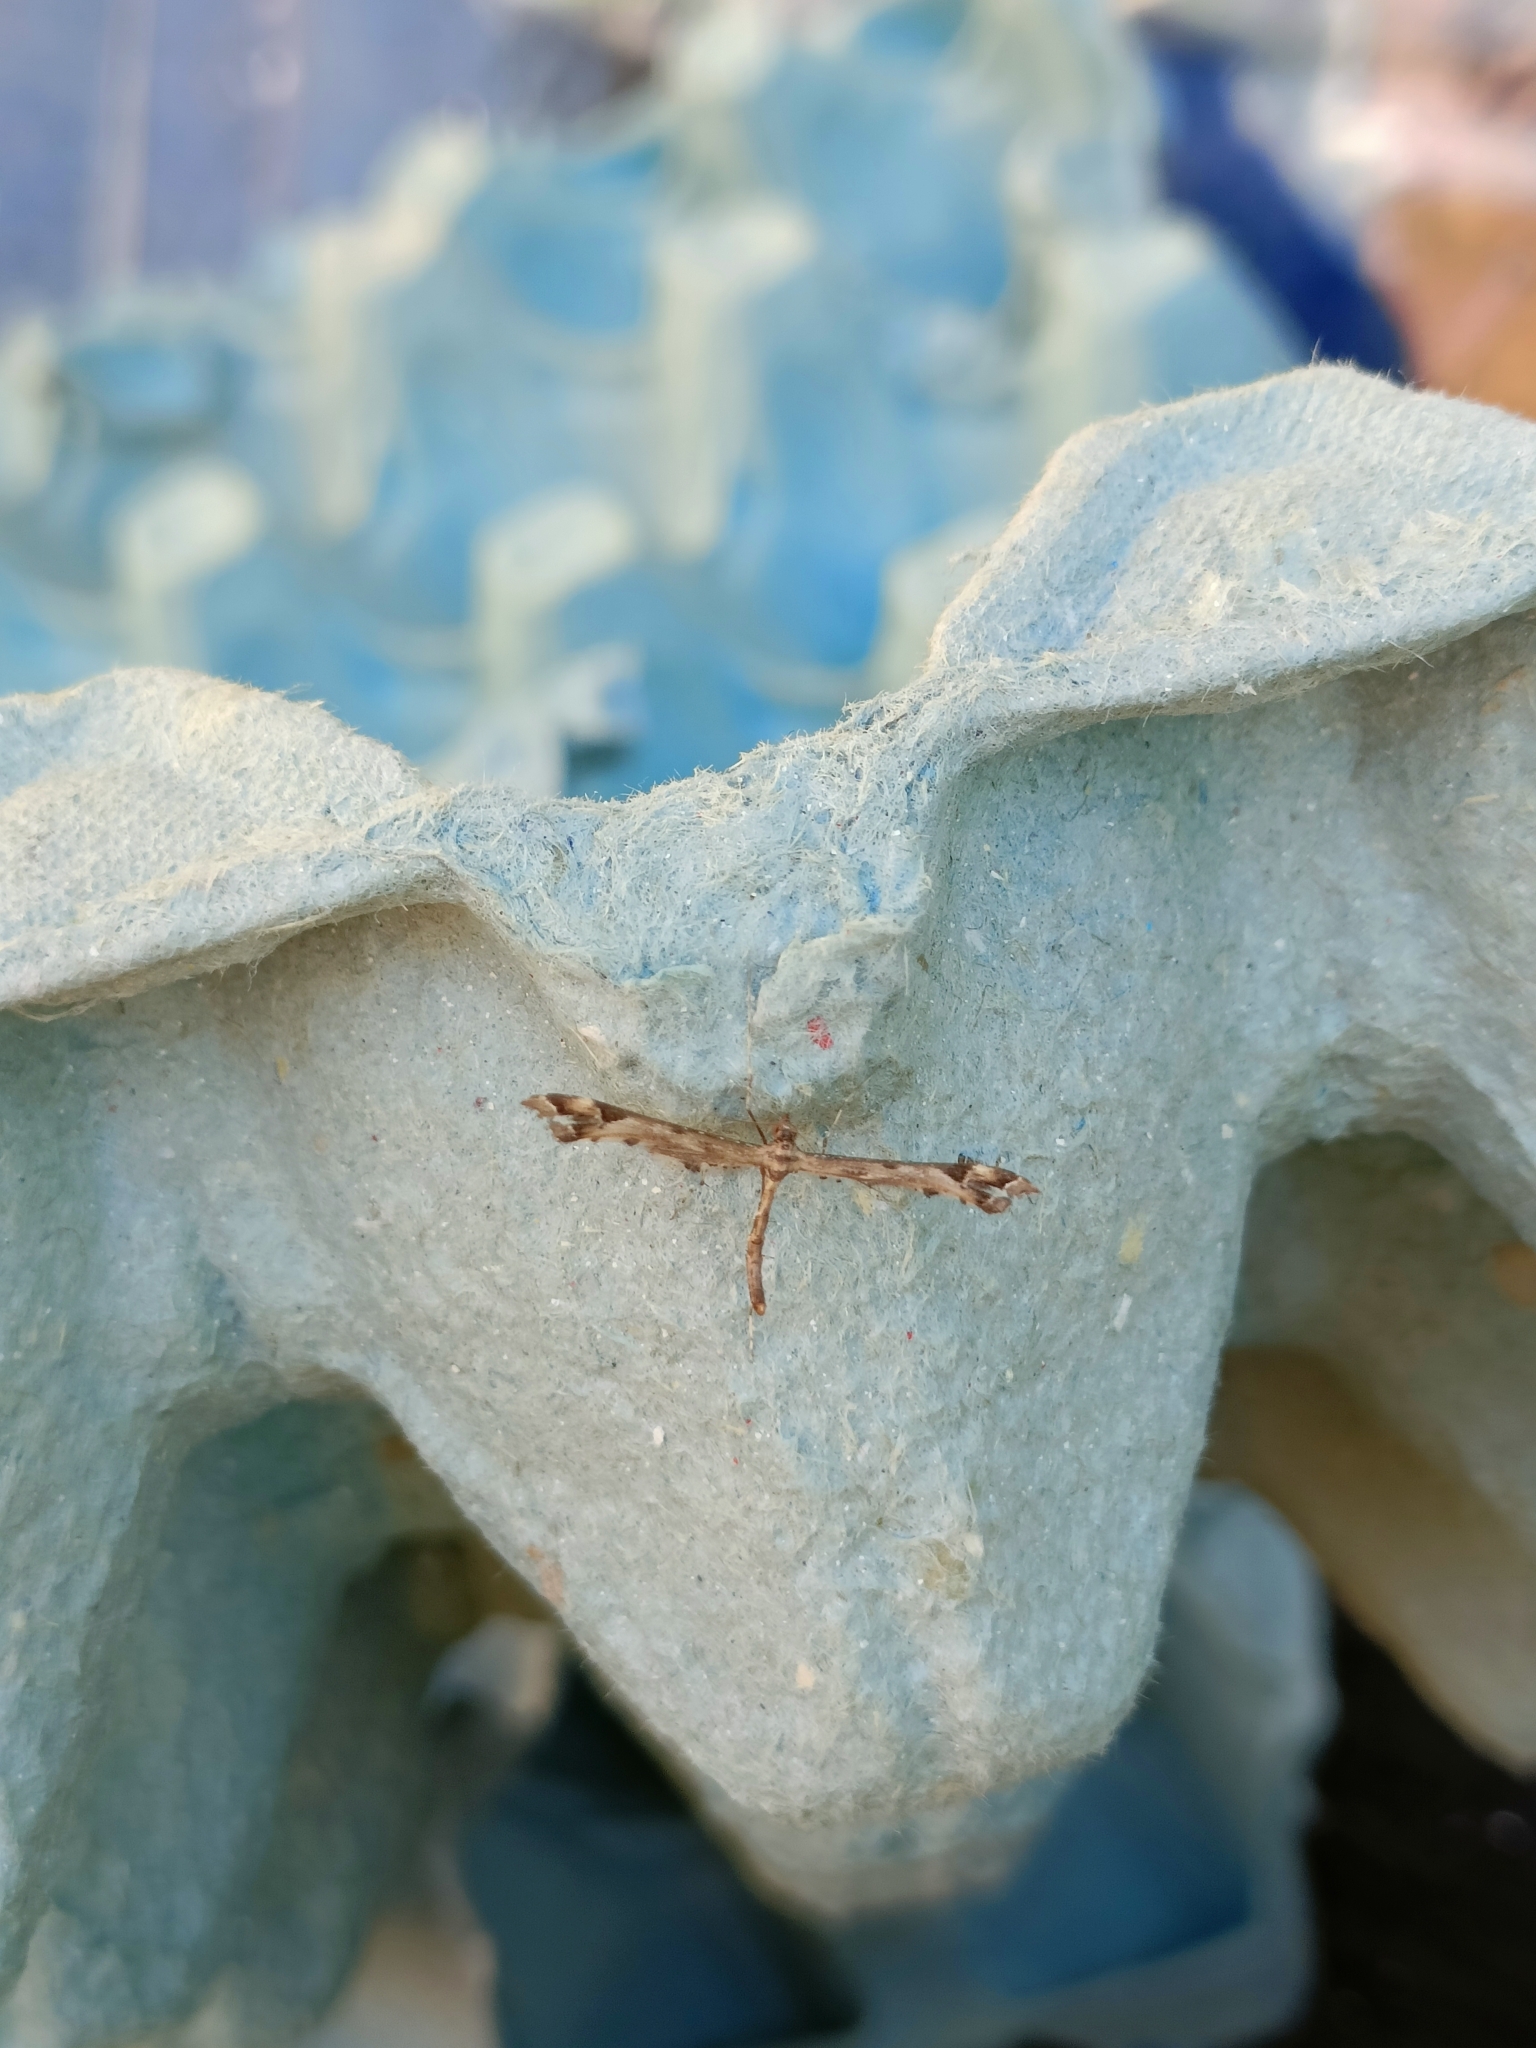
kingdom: Animalia
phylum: Arthropoda
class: Insecta
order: Lepidoptera
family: Pterophoridae
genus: Amblyptilia
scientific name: Amblyptilia acanthadactyla
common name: Beautiful plume
